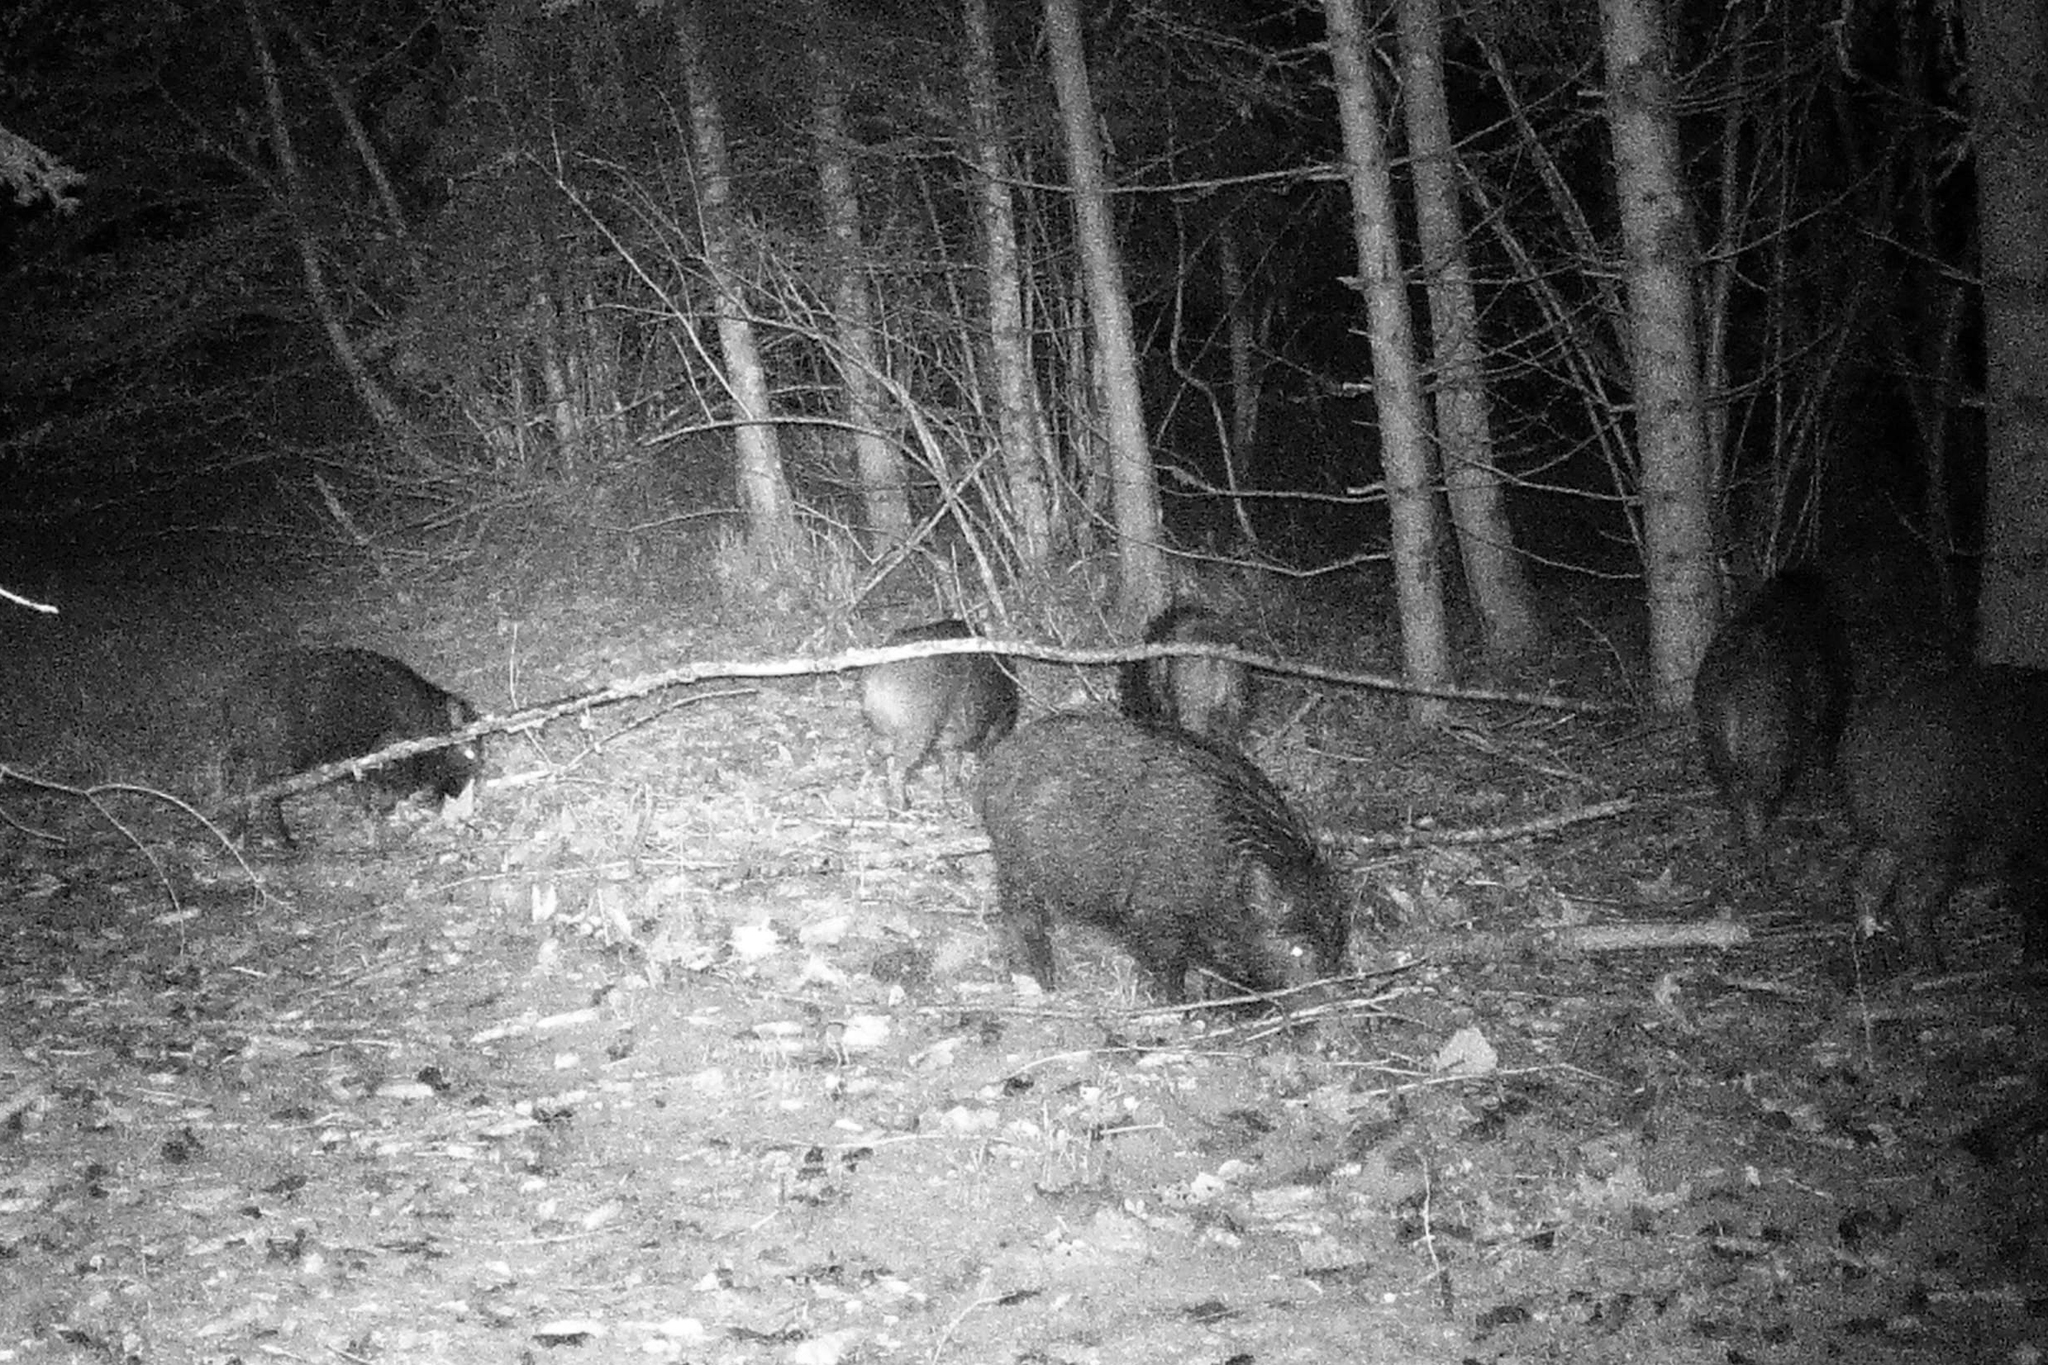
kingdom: Animalia
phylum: Chordata
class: Mammalia
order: Artiodactyla
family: Suidae
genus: Sus
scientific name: Sus scrofa
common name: Wild boar
